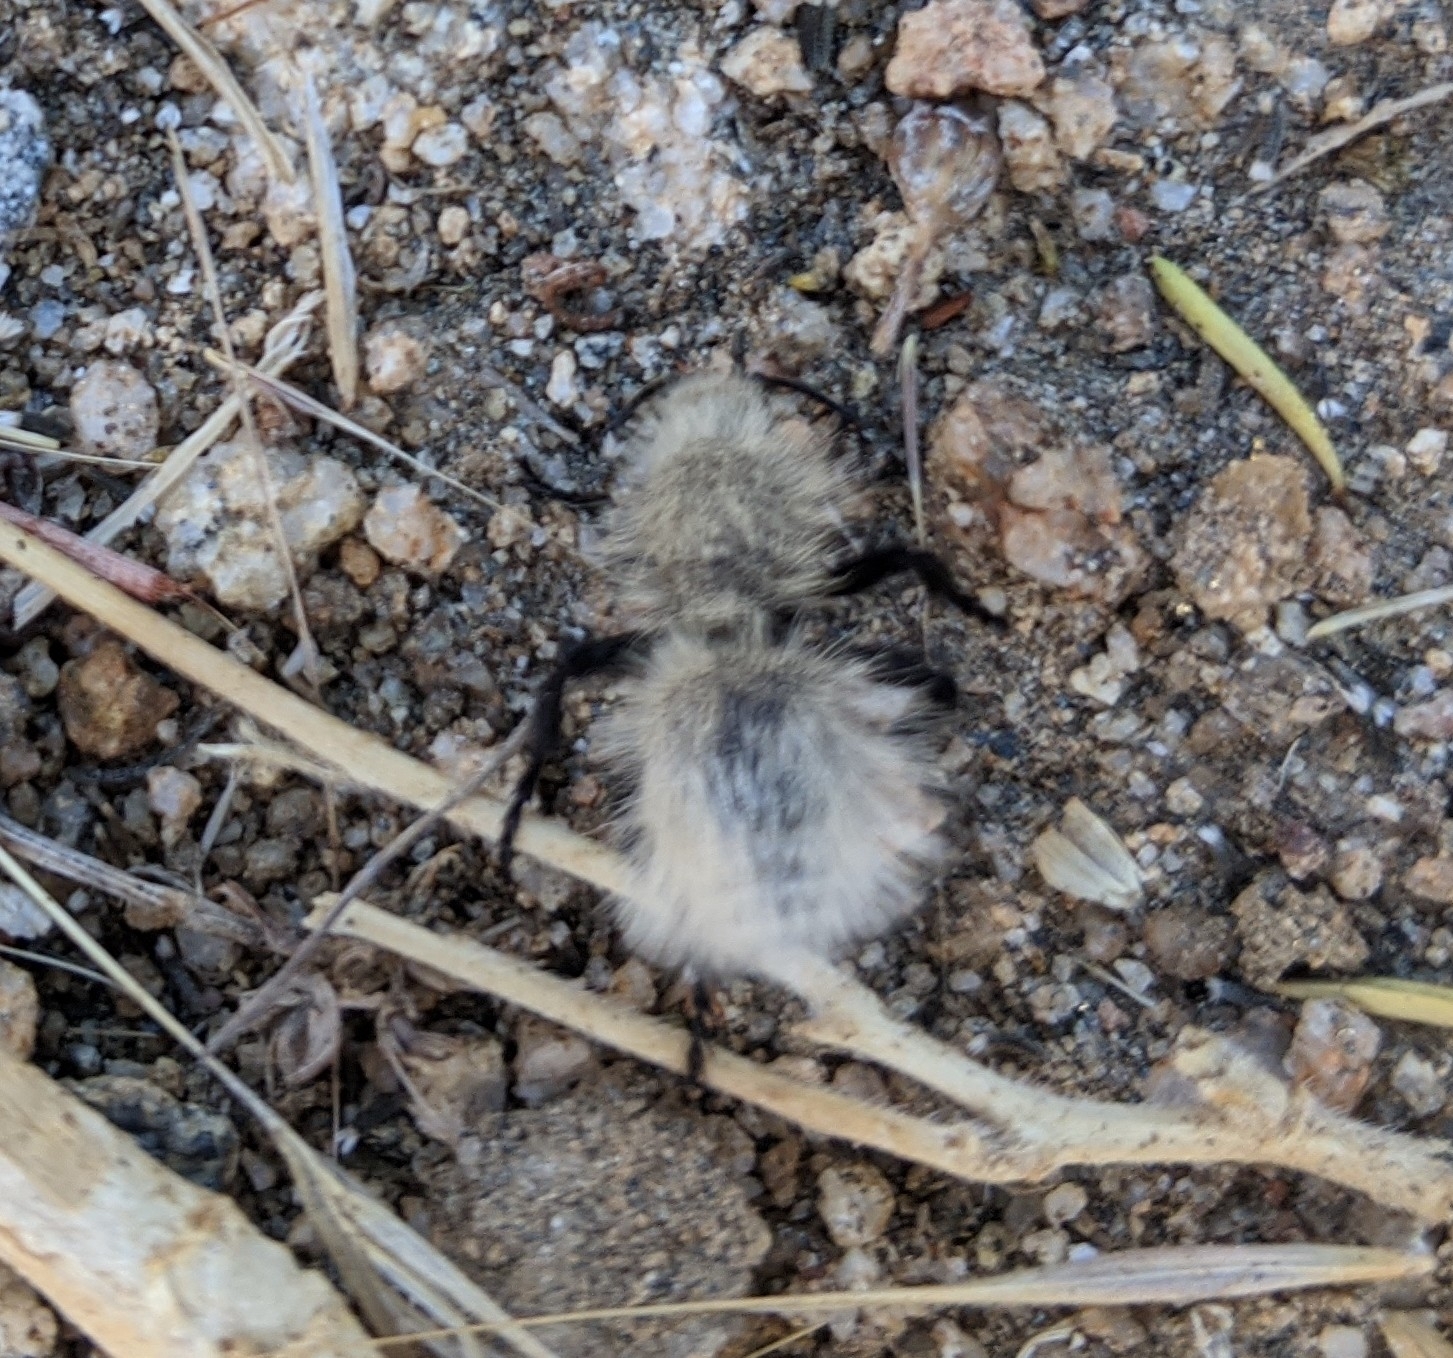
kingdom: Animalia
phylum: Arthropoda
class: Insecta
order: Hymenoptera
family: Mutillidae
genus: Dasymutilla
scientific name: Dasymutilla
